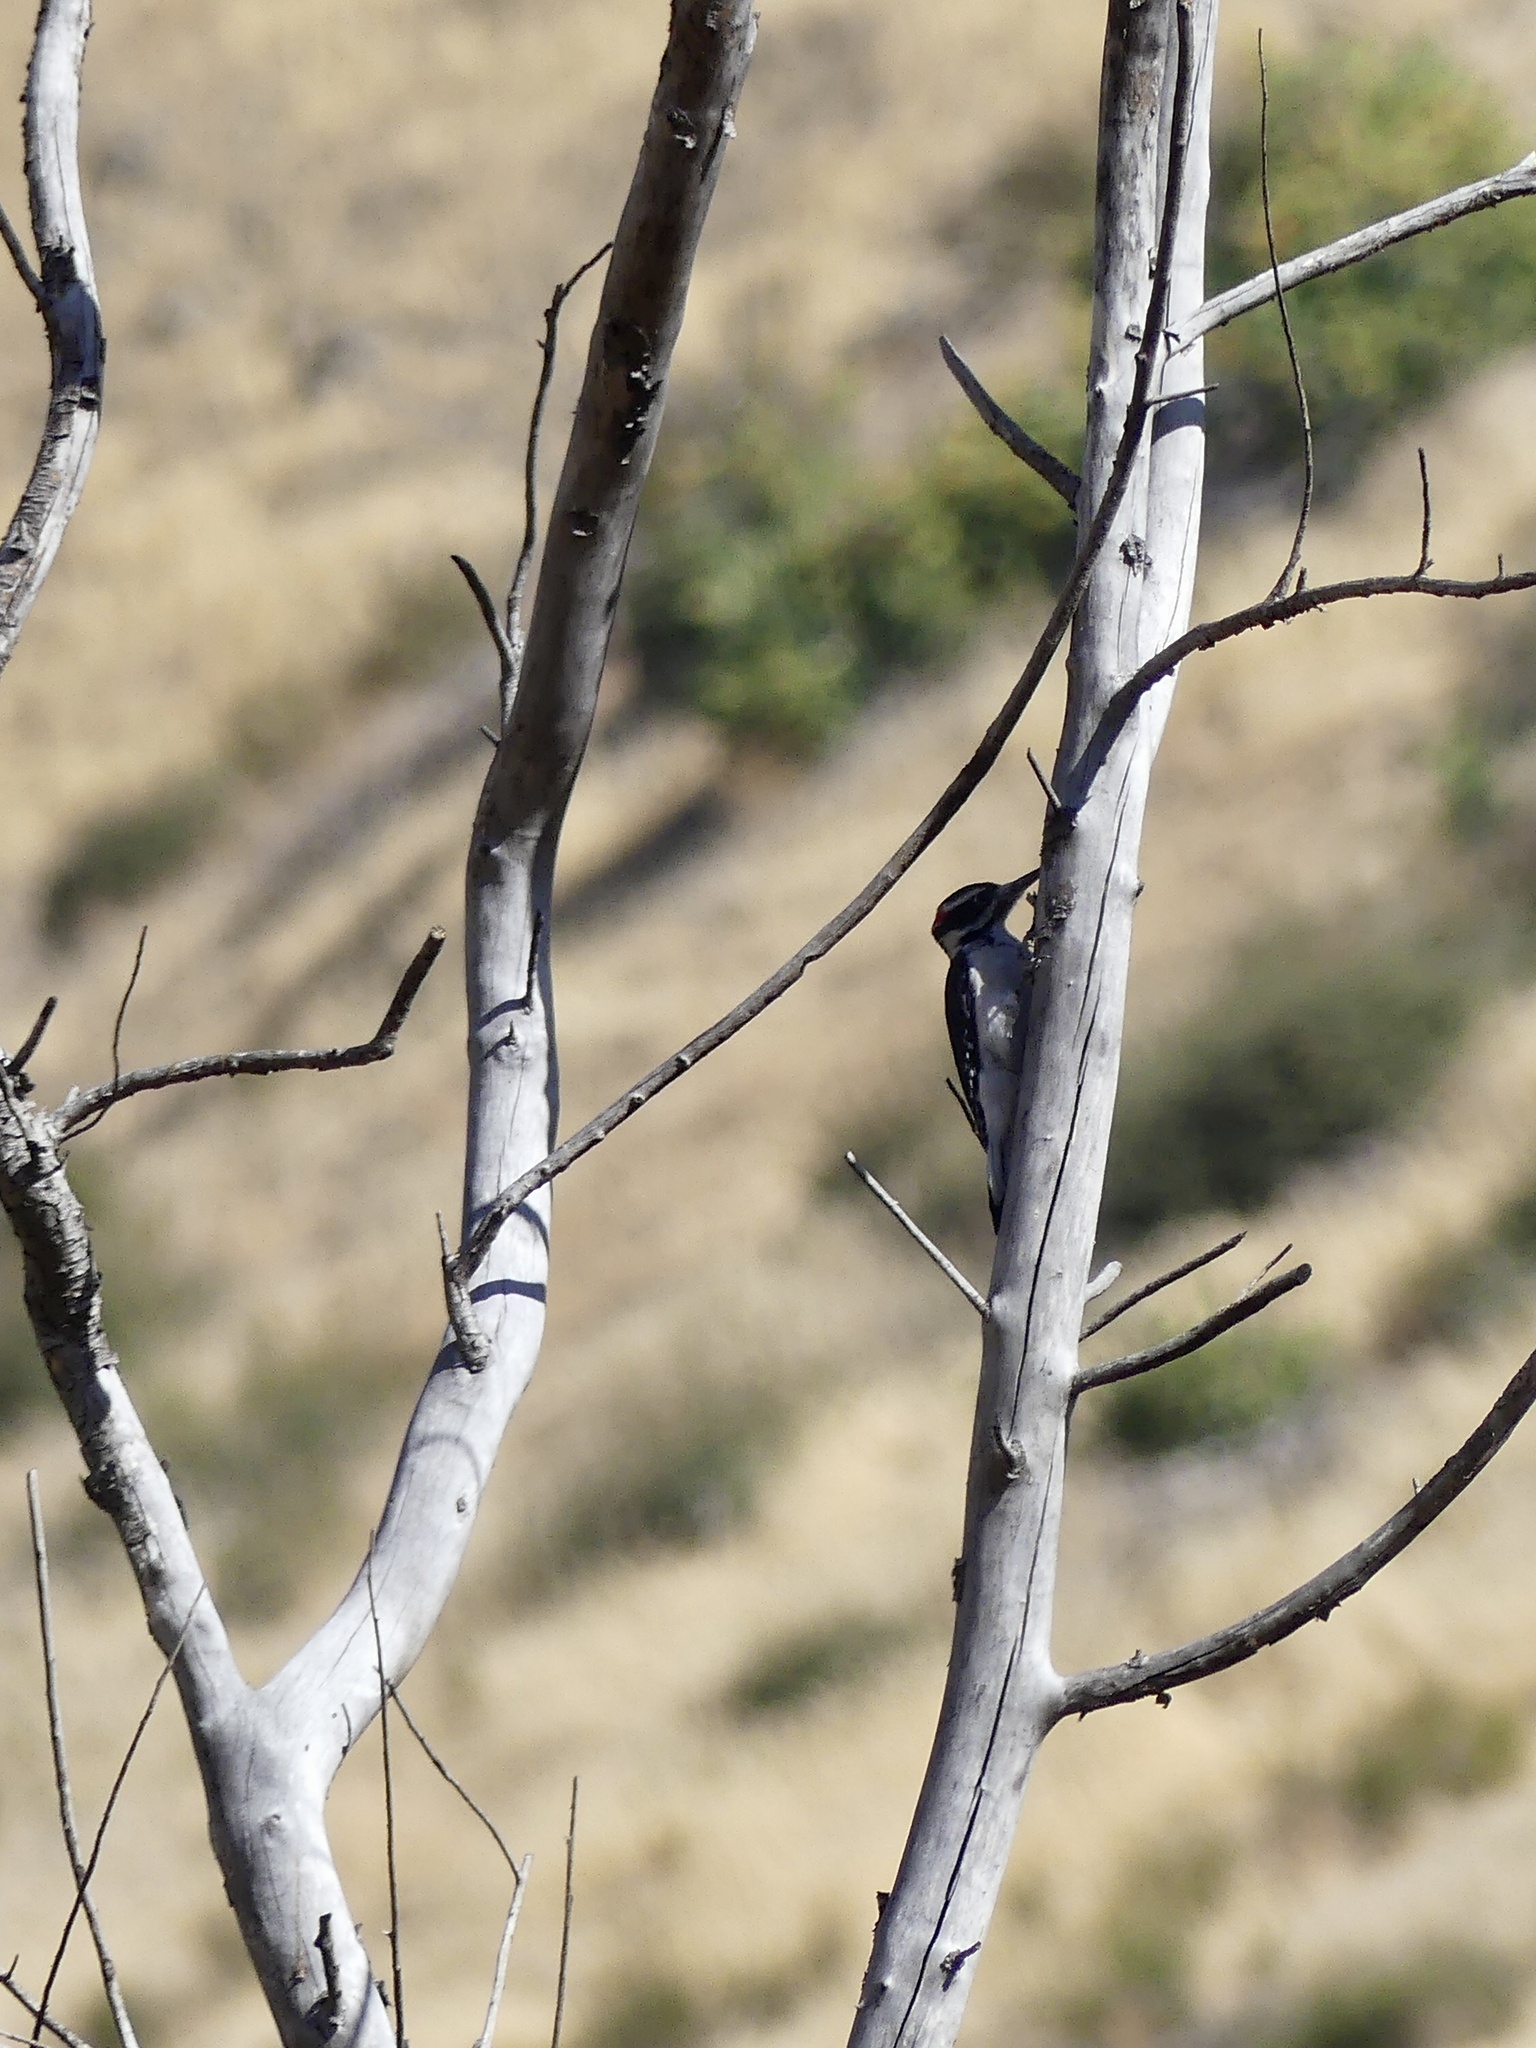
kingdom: Animalia
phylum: Chordata
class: Aves
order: Piciformes
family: Picidae
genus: Leuconotopicus
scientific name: Leuconotopicus villosus
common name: Hairy woodpecker
